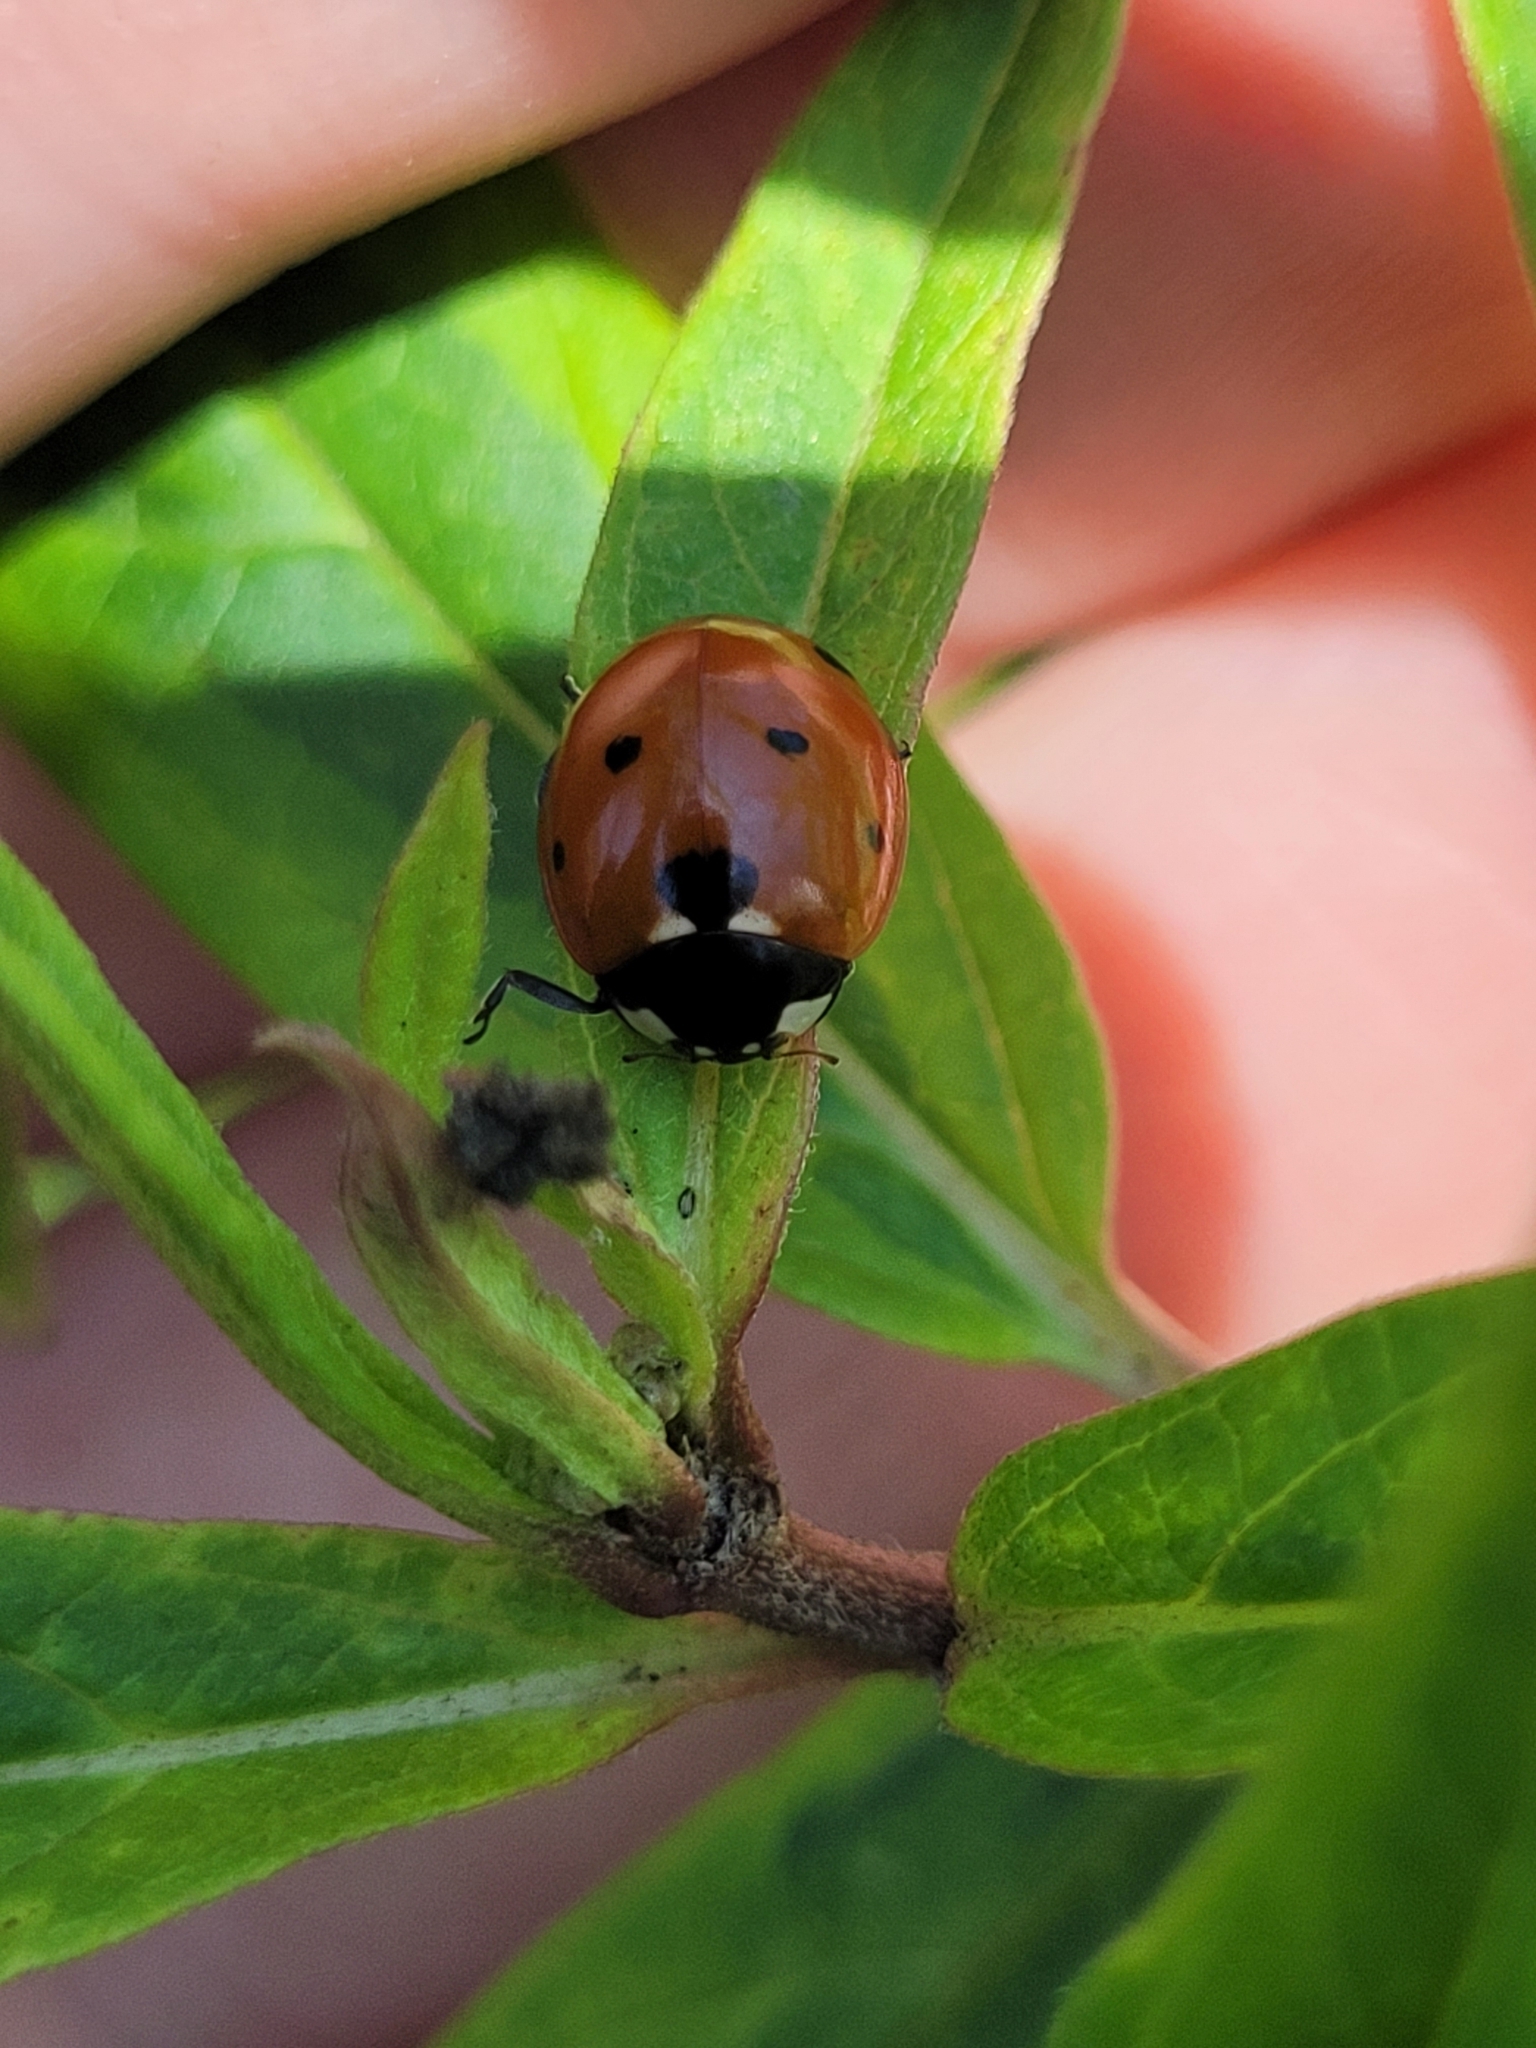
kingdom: Animalia
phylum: Arthropoda
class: Insecta
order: Coleoptera
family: Coccinellidae
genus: Coccinella
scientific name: Coccinella septempunctata
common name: Sevenspotted lady beetle
